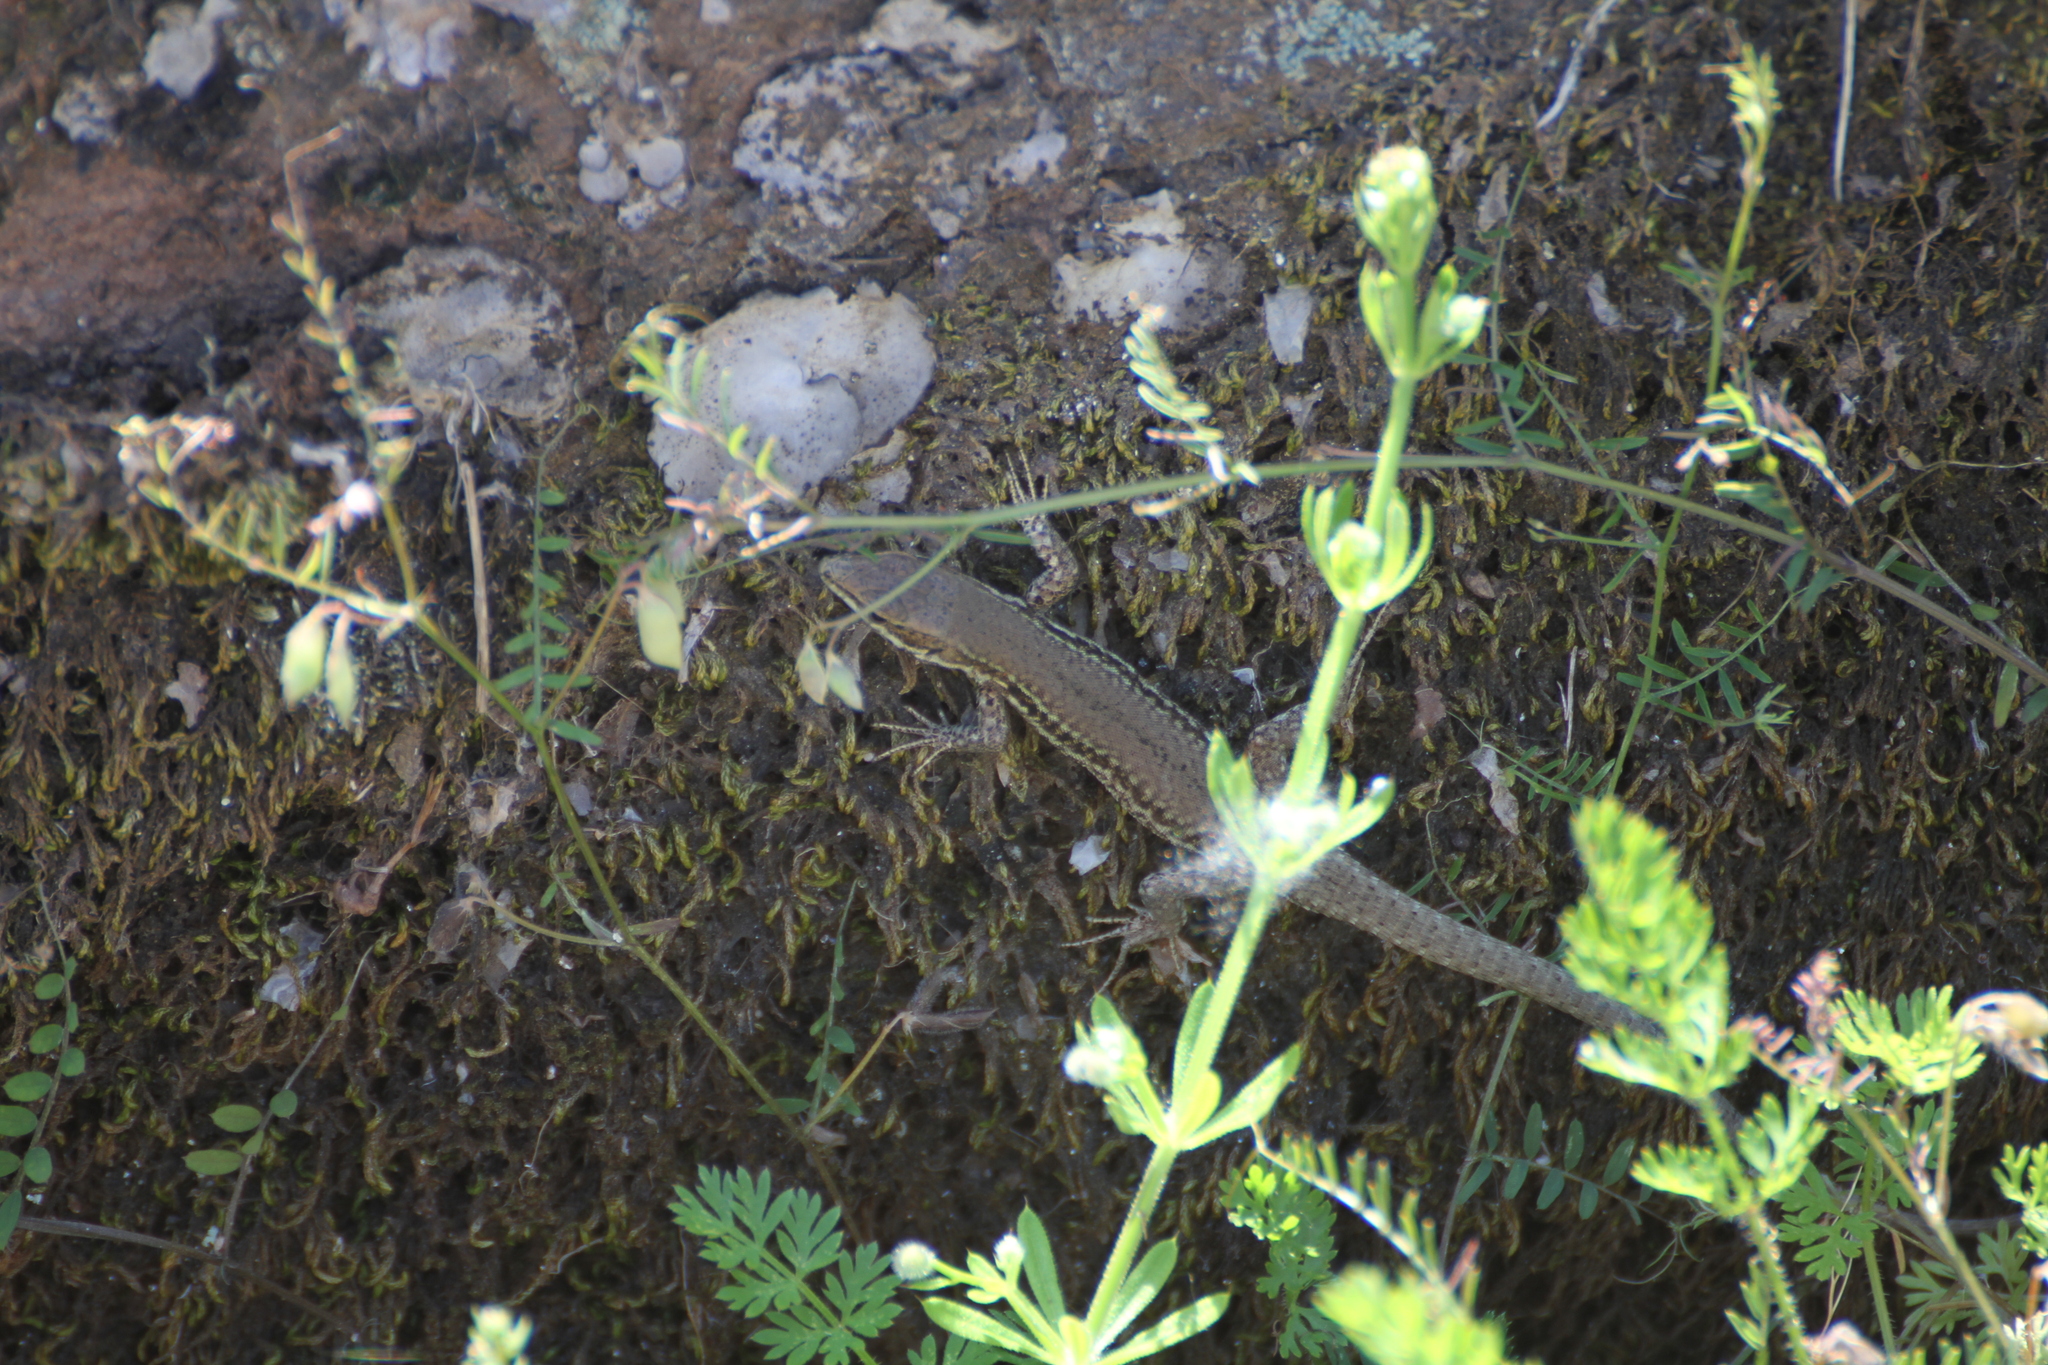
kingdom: Animalia
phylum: Chordata
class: Squamata
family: Lacertidae
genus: Podarcis
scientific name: Podarcis muralis
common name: Common wall lizard
